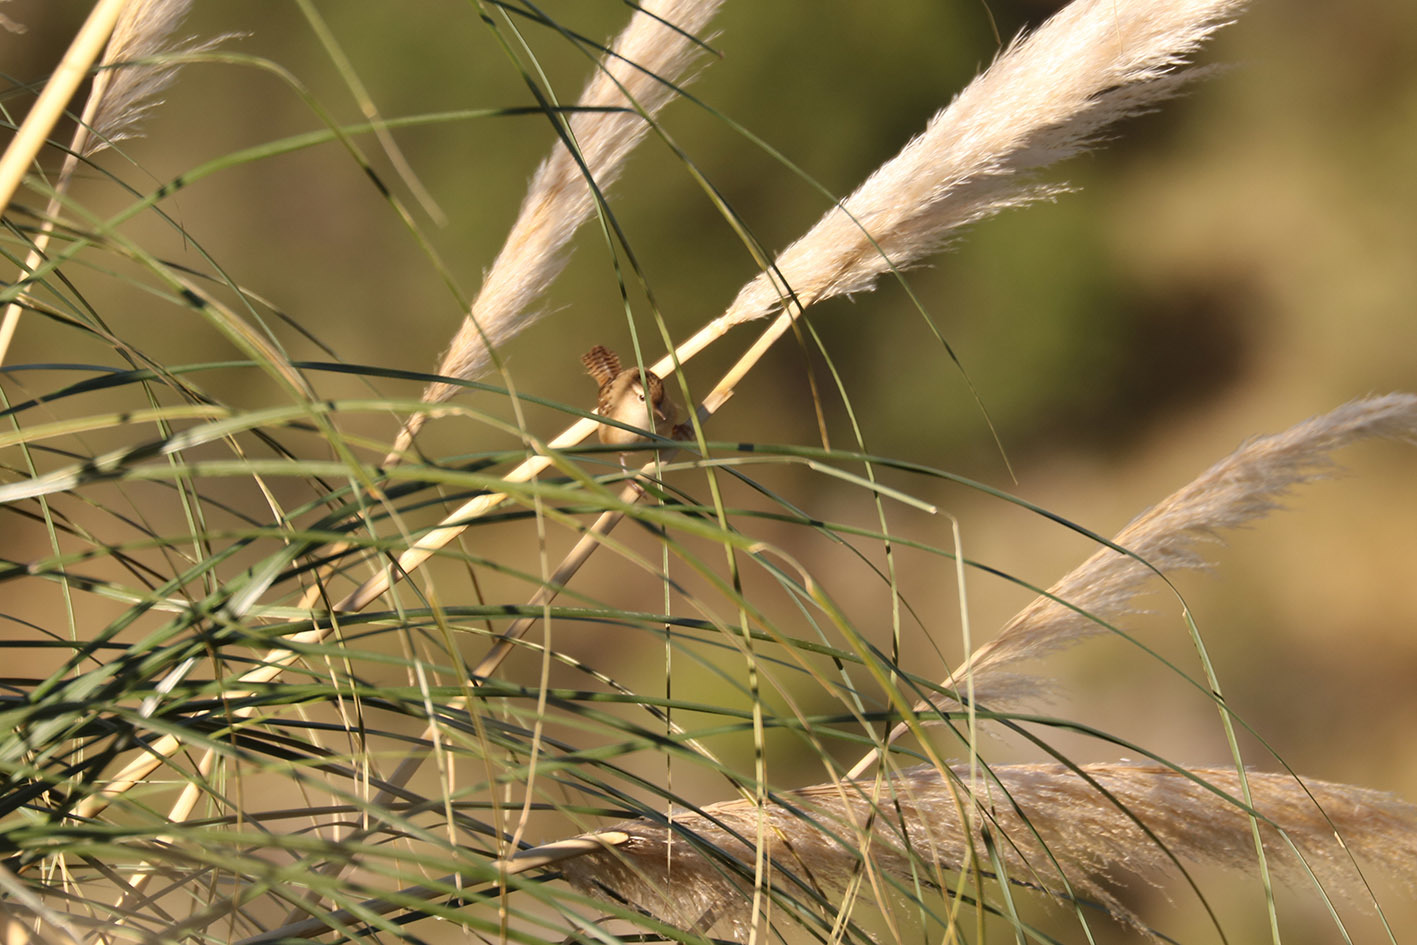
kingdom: Animalia
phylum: Chordata
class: Aves
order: Passeriformes
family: Troglodytidae
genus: Cistothorus
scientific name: Cistothorus platensis
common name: Sedge wren
